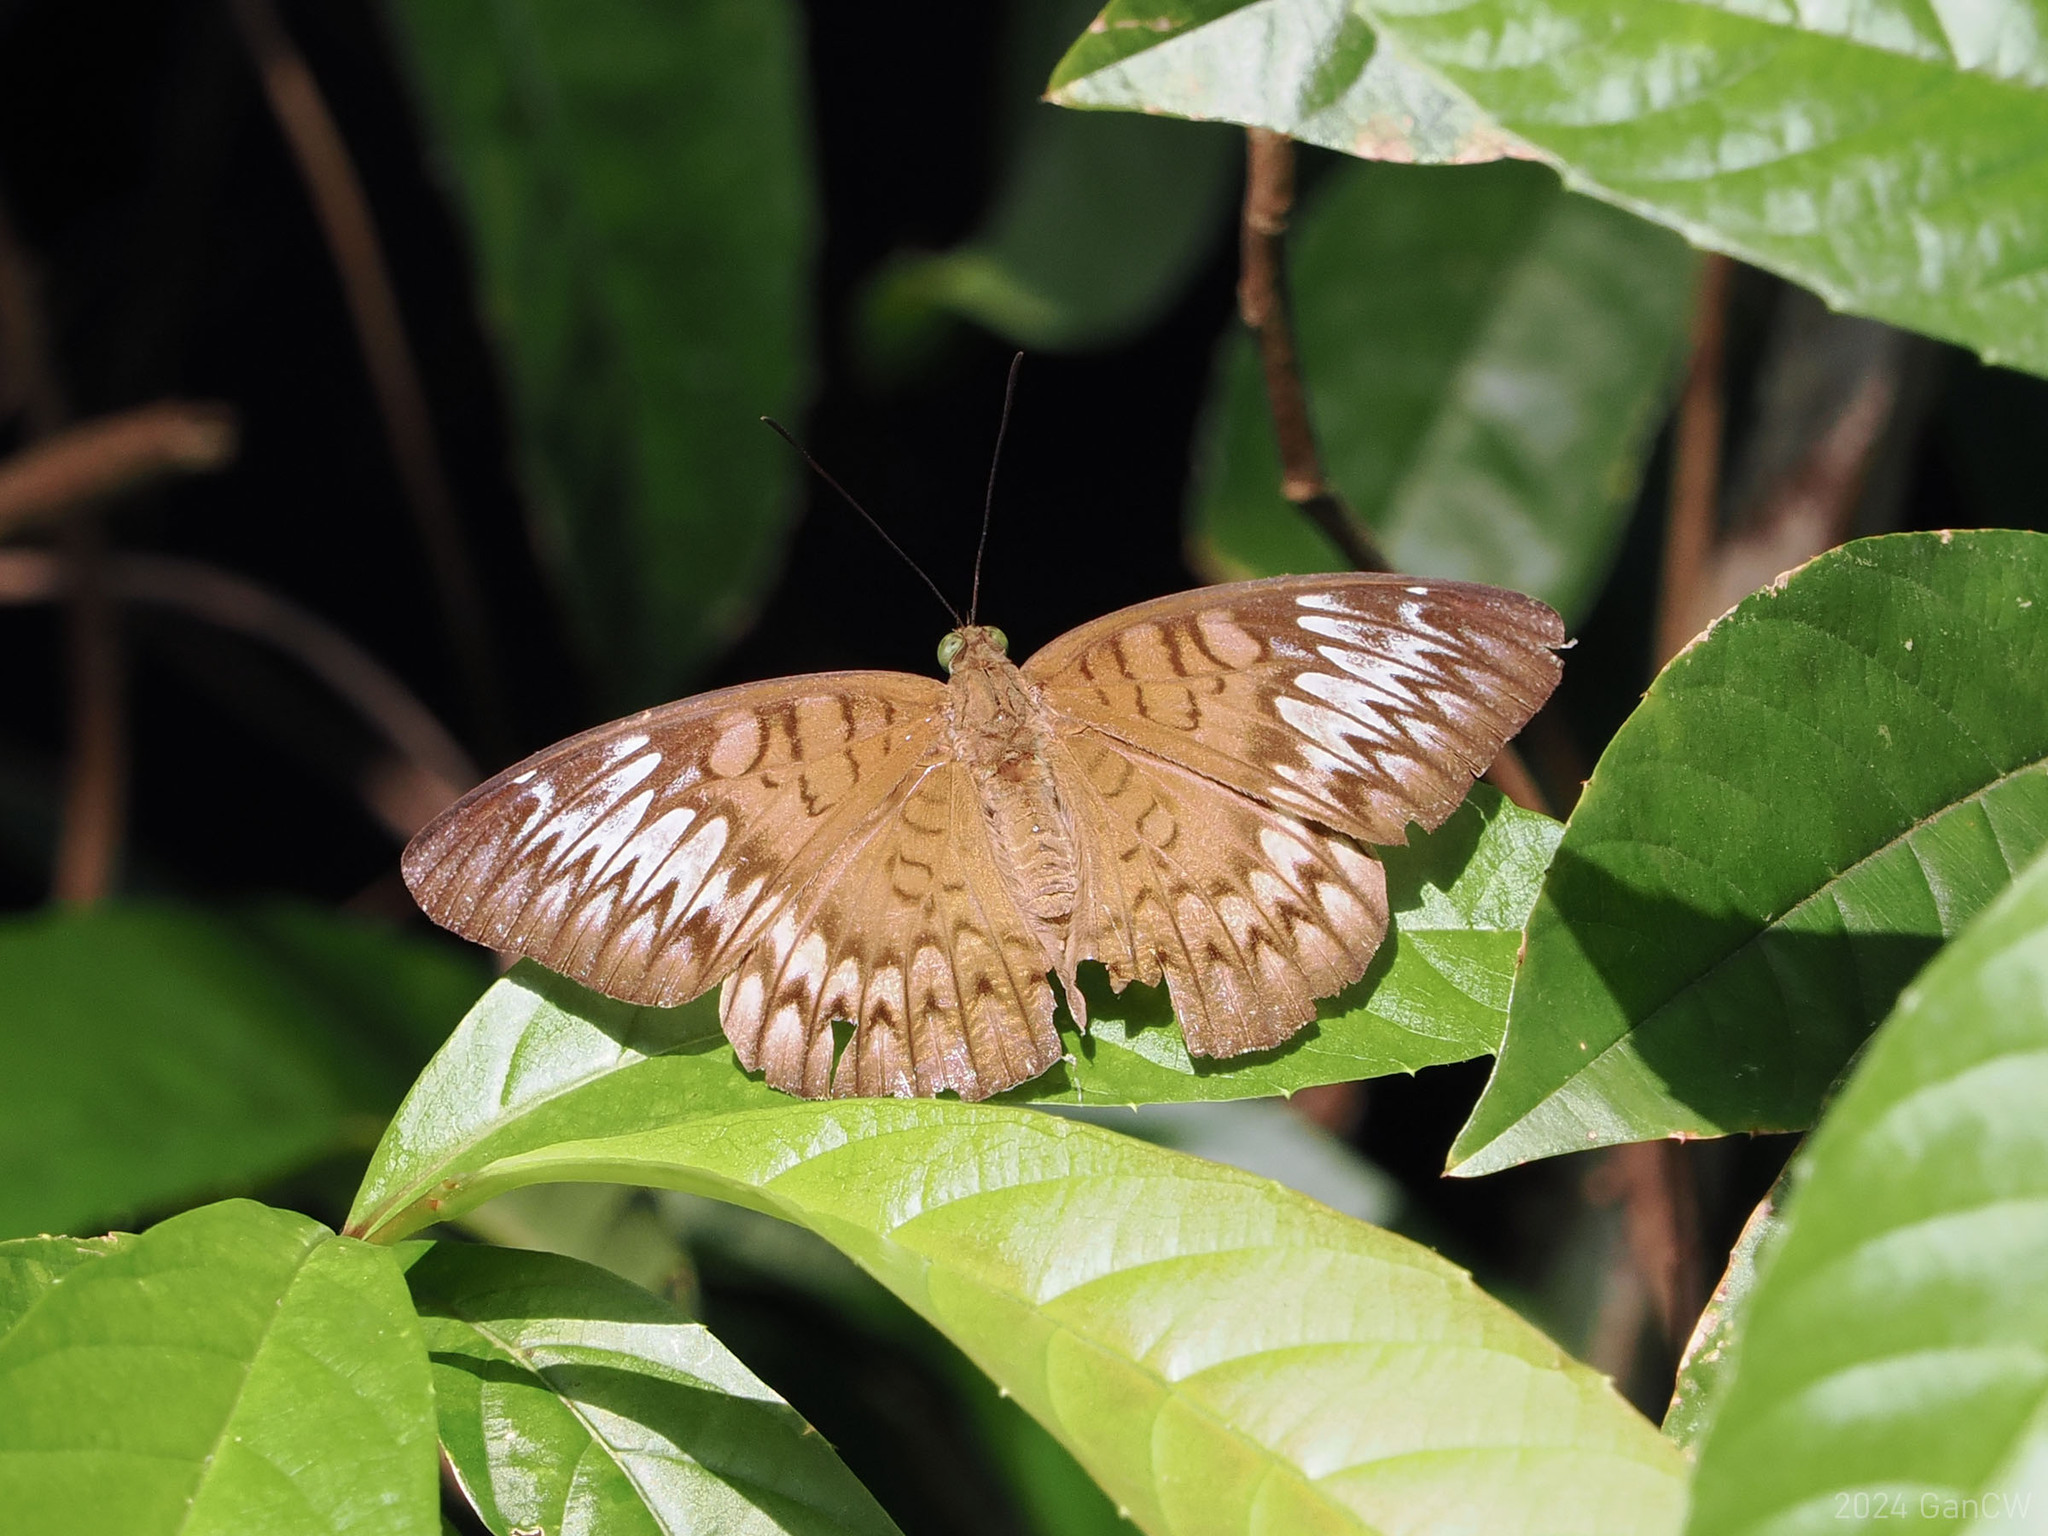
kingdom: Animalia
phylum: Arthropoda
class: Insecta
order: Lepidoptera
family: Nymphalidae
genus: Tanaecia
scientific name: Tanaecia pelea
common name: Malay viscount
